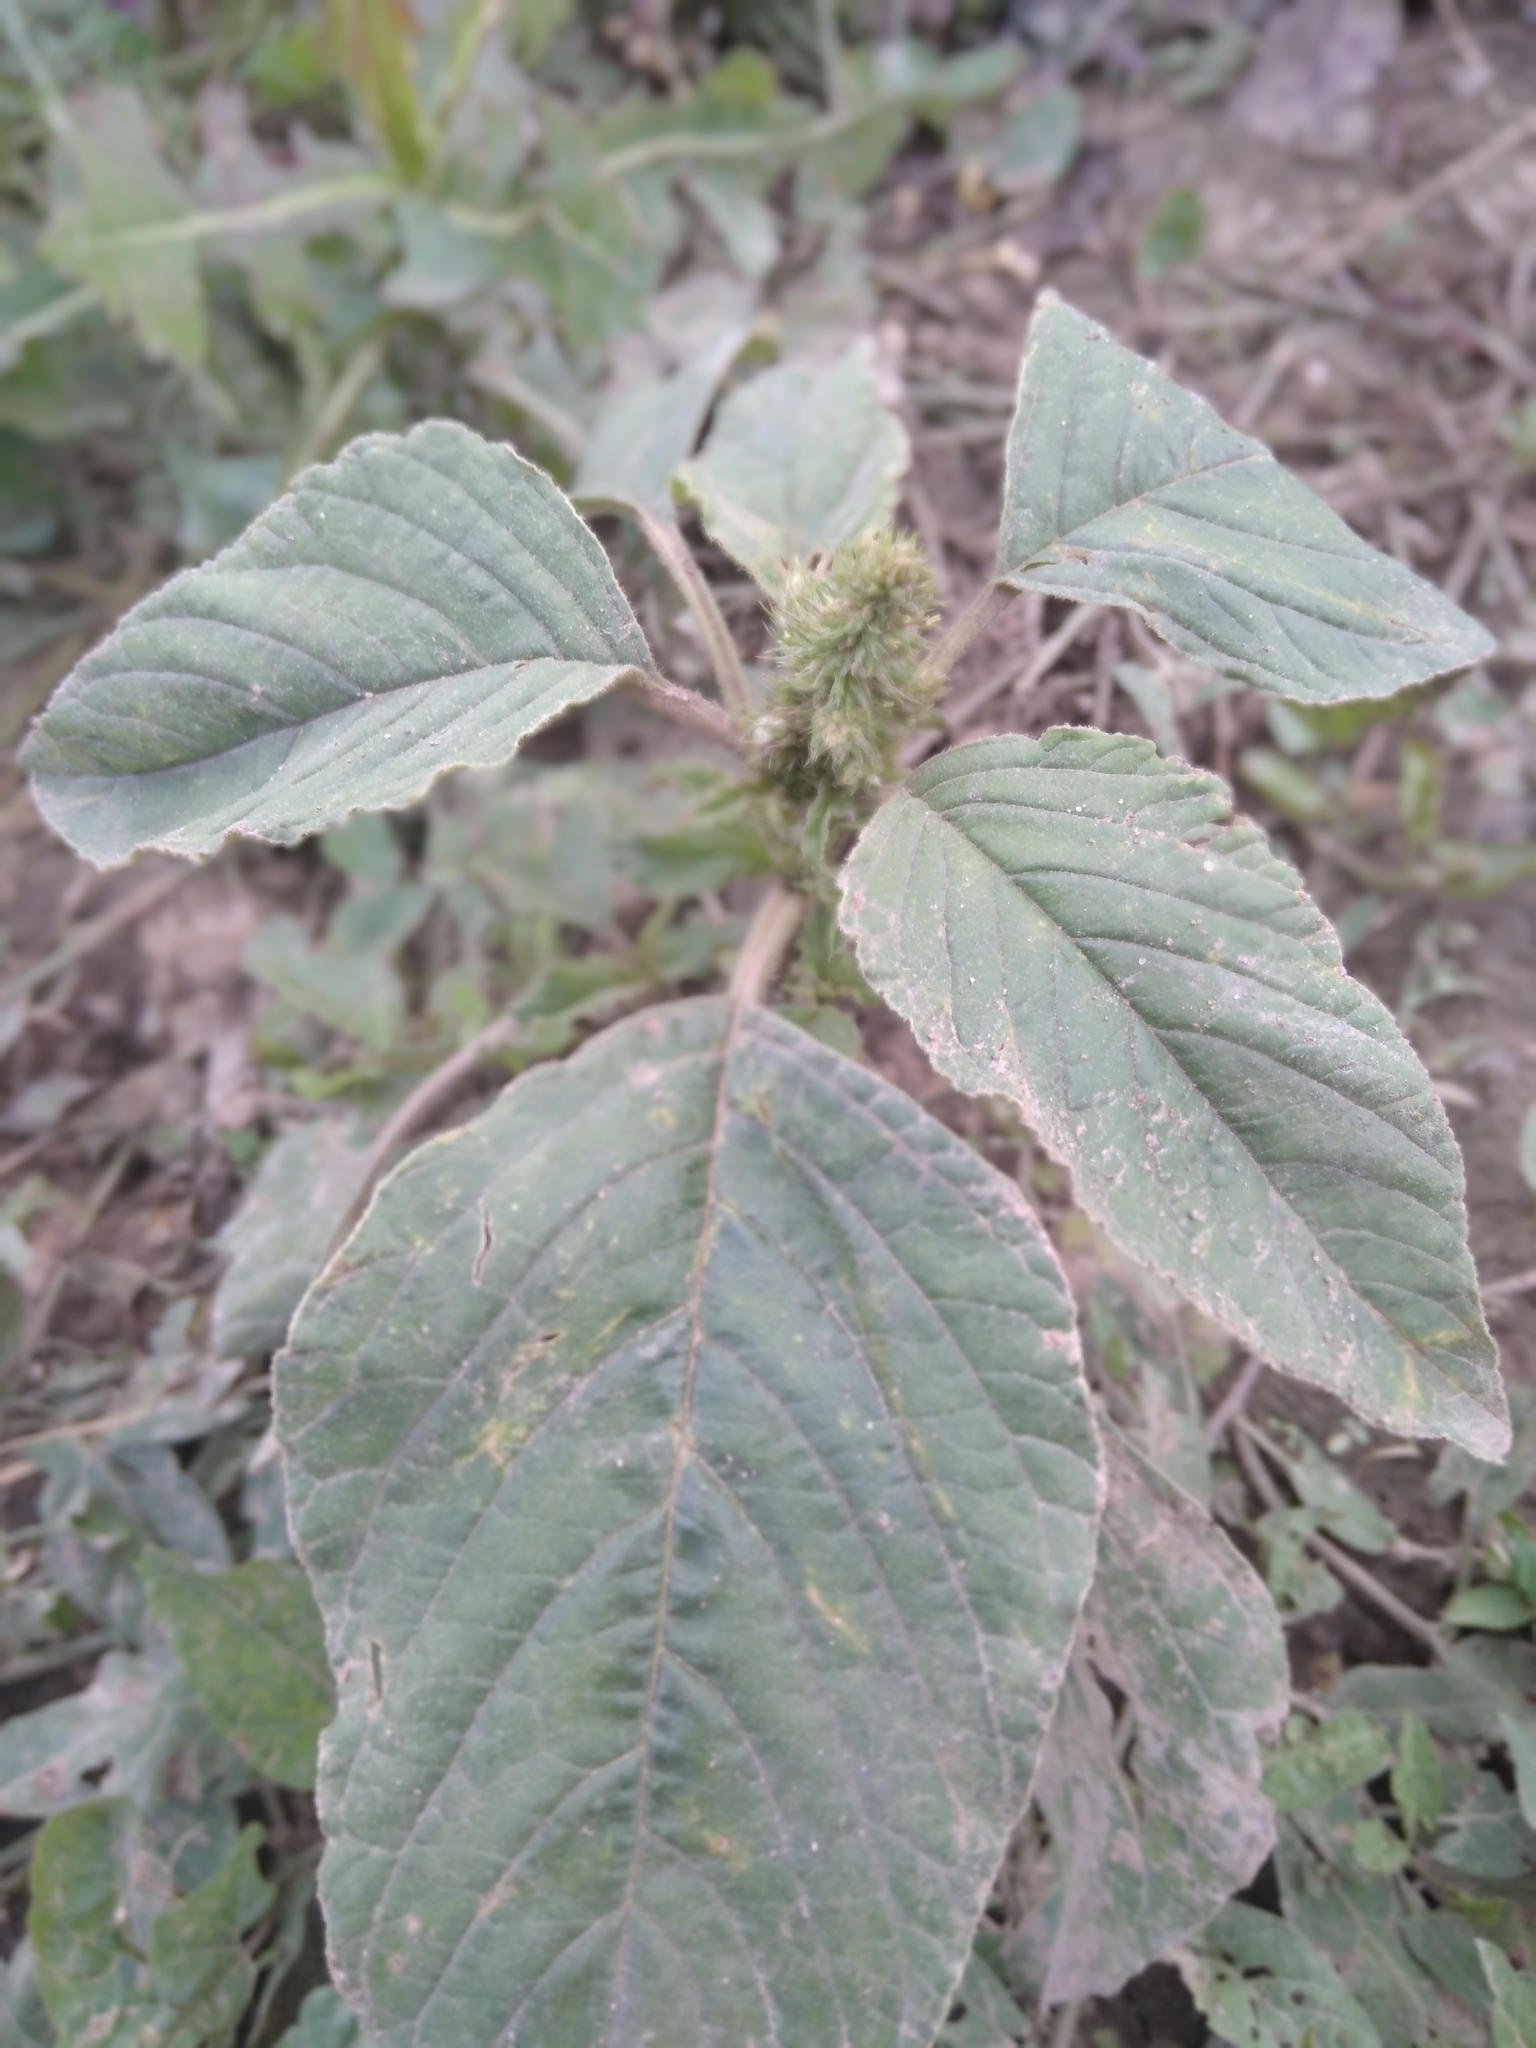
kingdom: Plantae
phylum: Tracheophyta
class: Magnoliopsida
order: Caryophyllales
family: Amaranthaceae
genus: Amaranthus
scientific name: Amaranthus retroflexus
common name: Redroot amaranth
